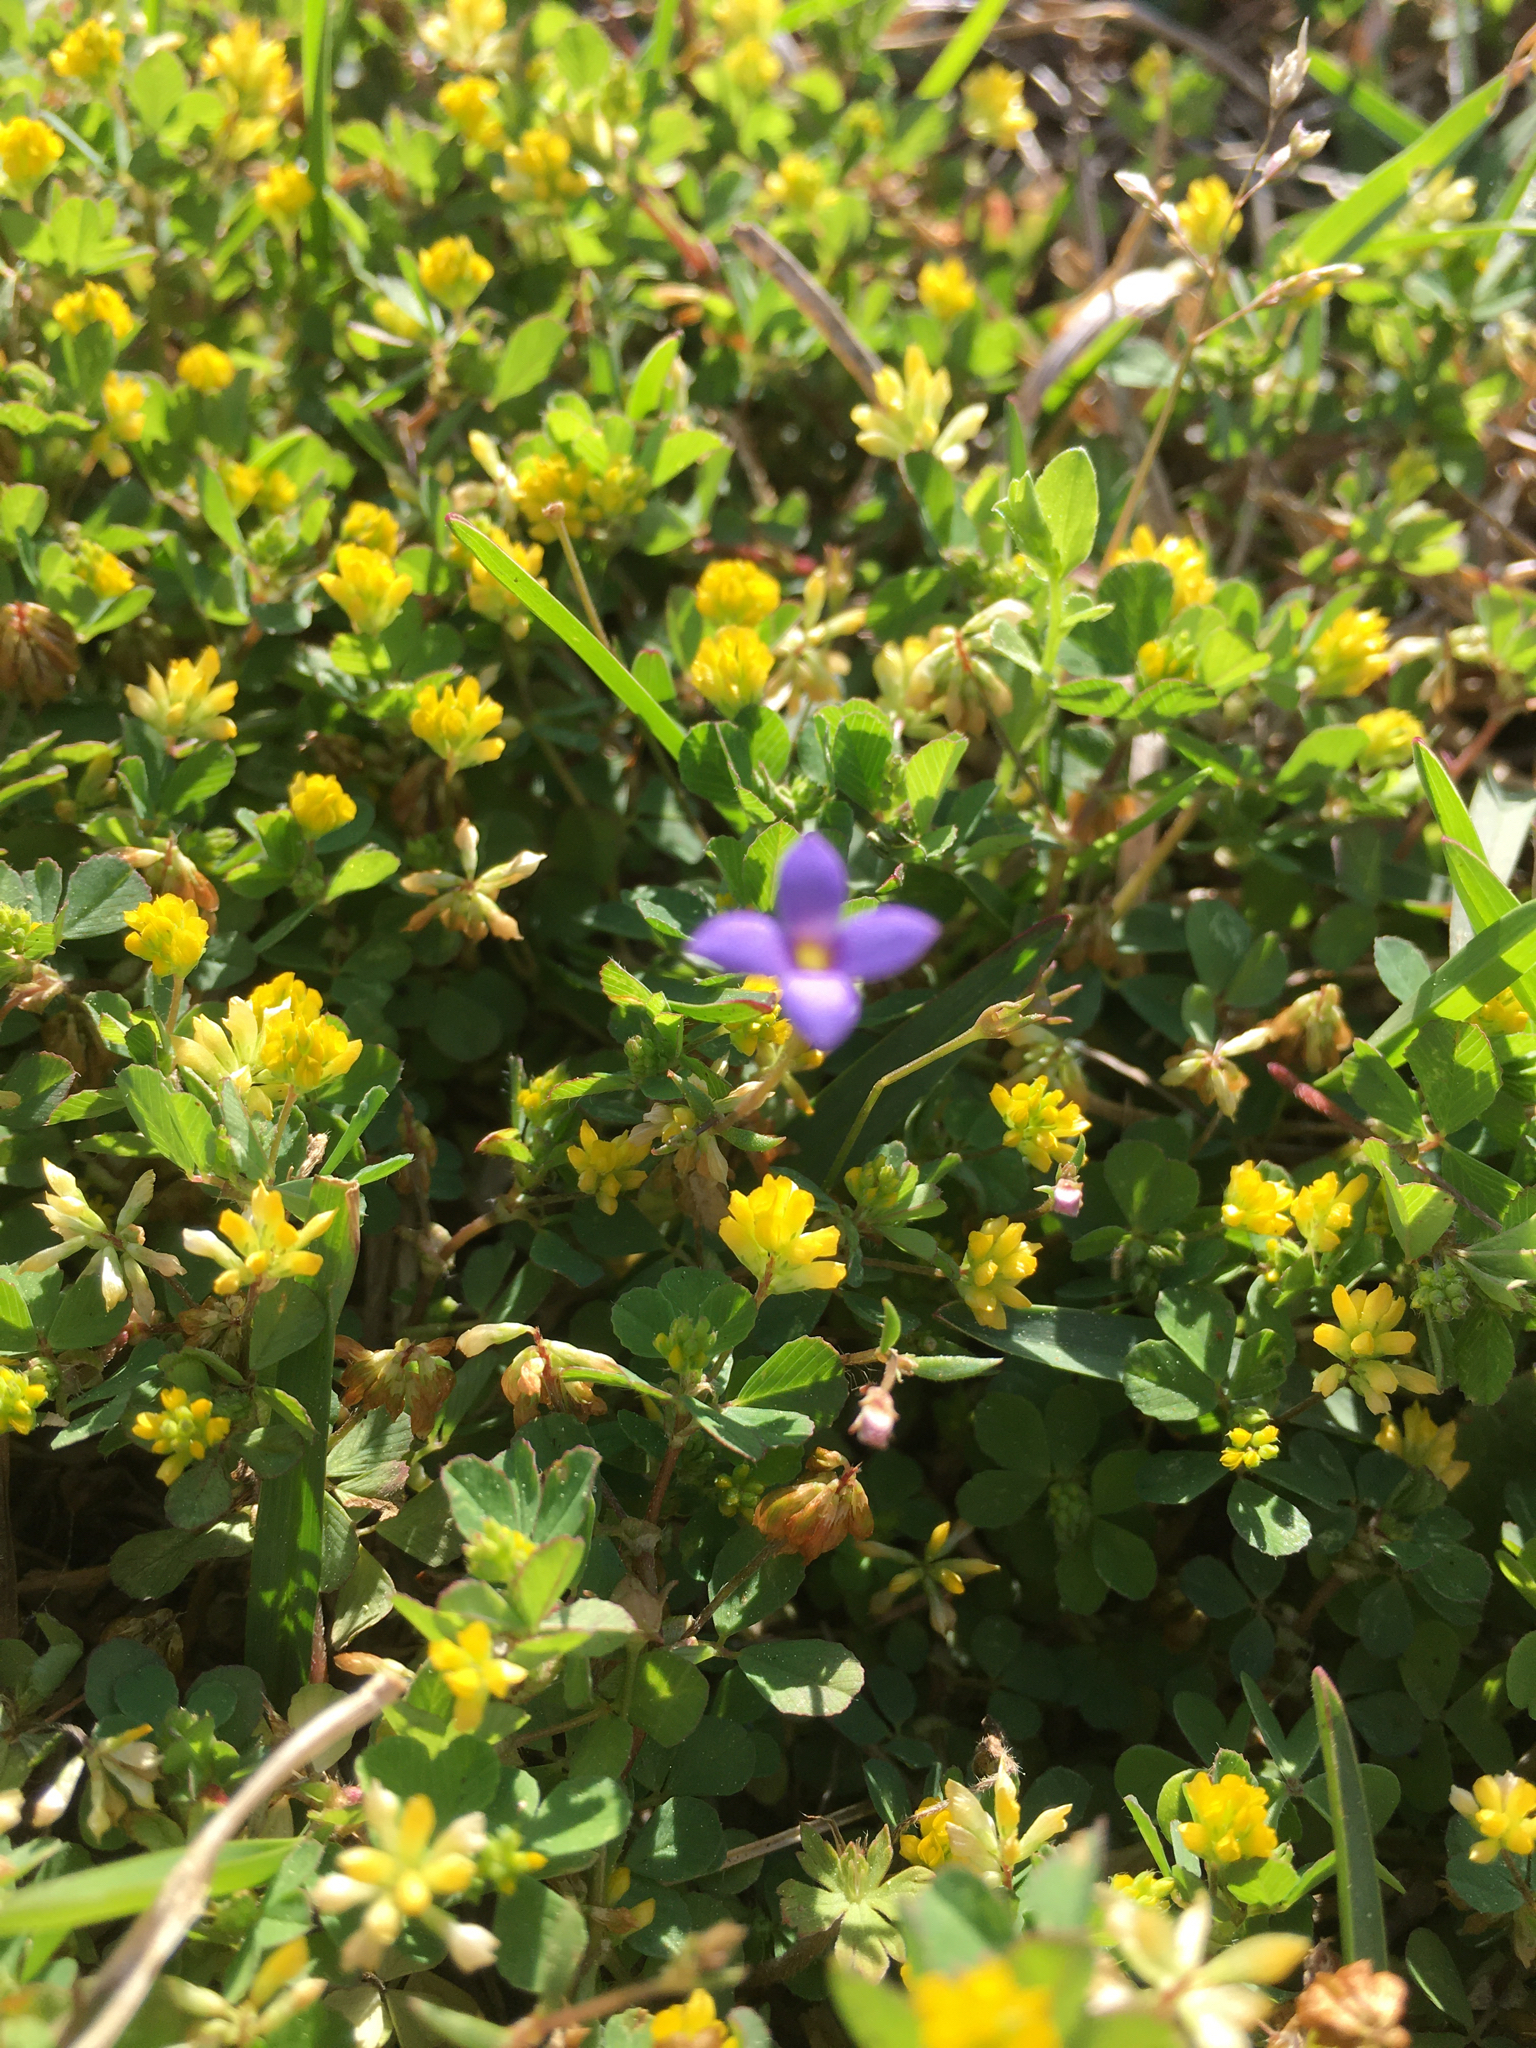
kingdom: Plantae
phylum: Tracheophyta
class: Magnoliopsida
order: Gentianales
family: Rubiaceae
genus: Houstonia
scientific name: Houstonia pusilla
